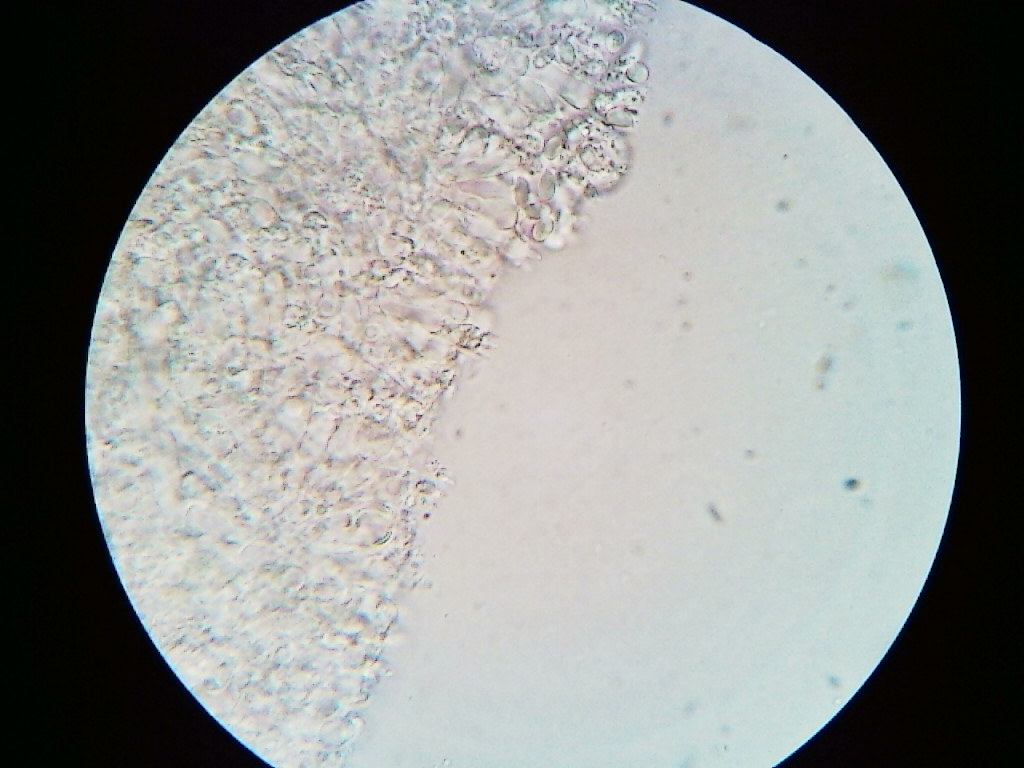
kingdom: Fungi
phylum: Basidiomycota
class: Agaricomycetes
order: Agaricales
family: Mycenaceae
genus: Mycena
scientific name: Mycena
